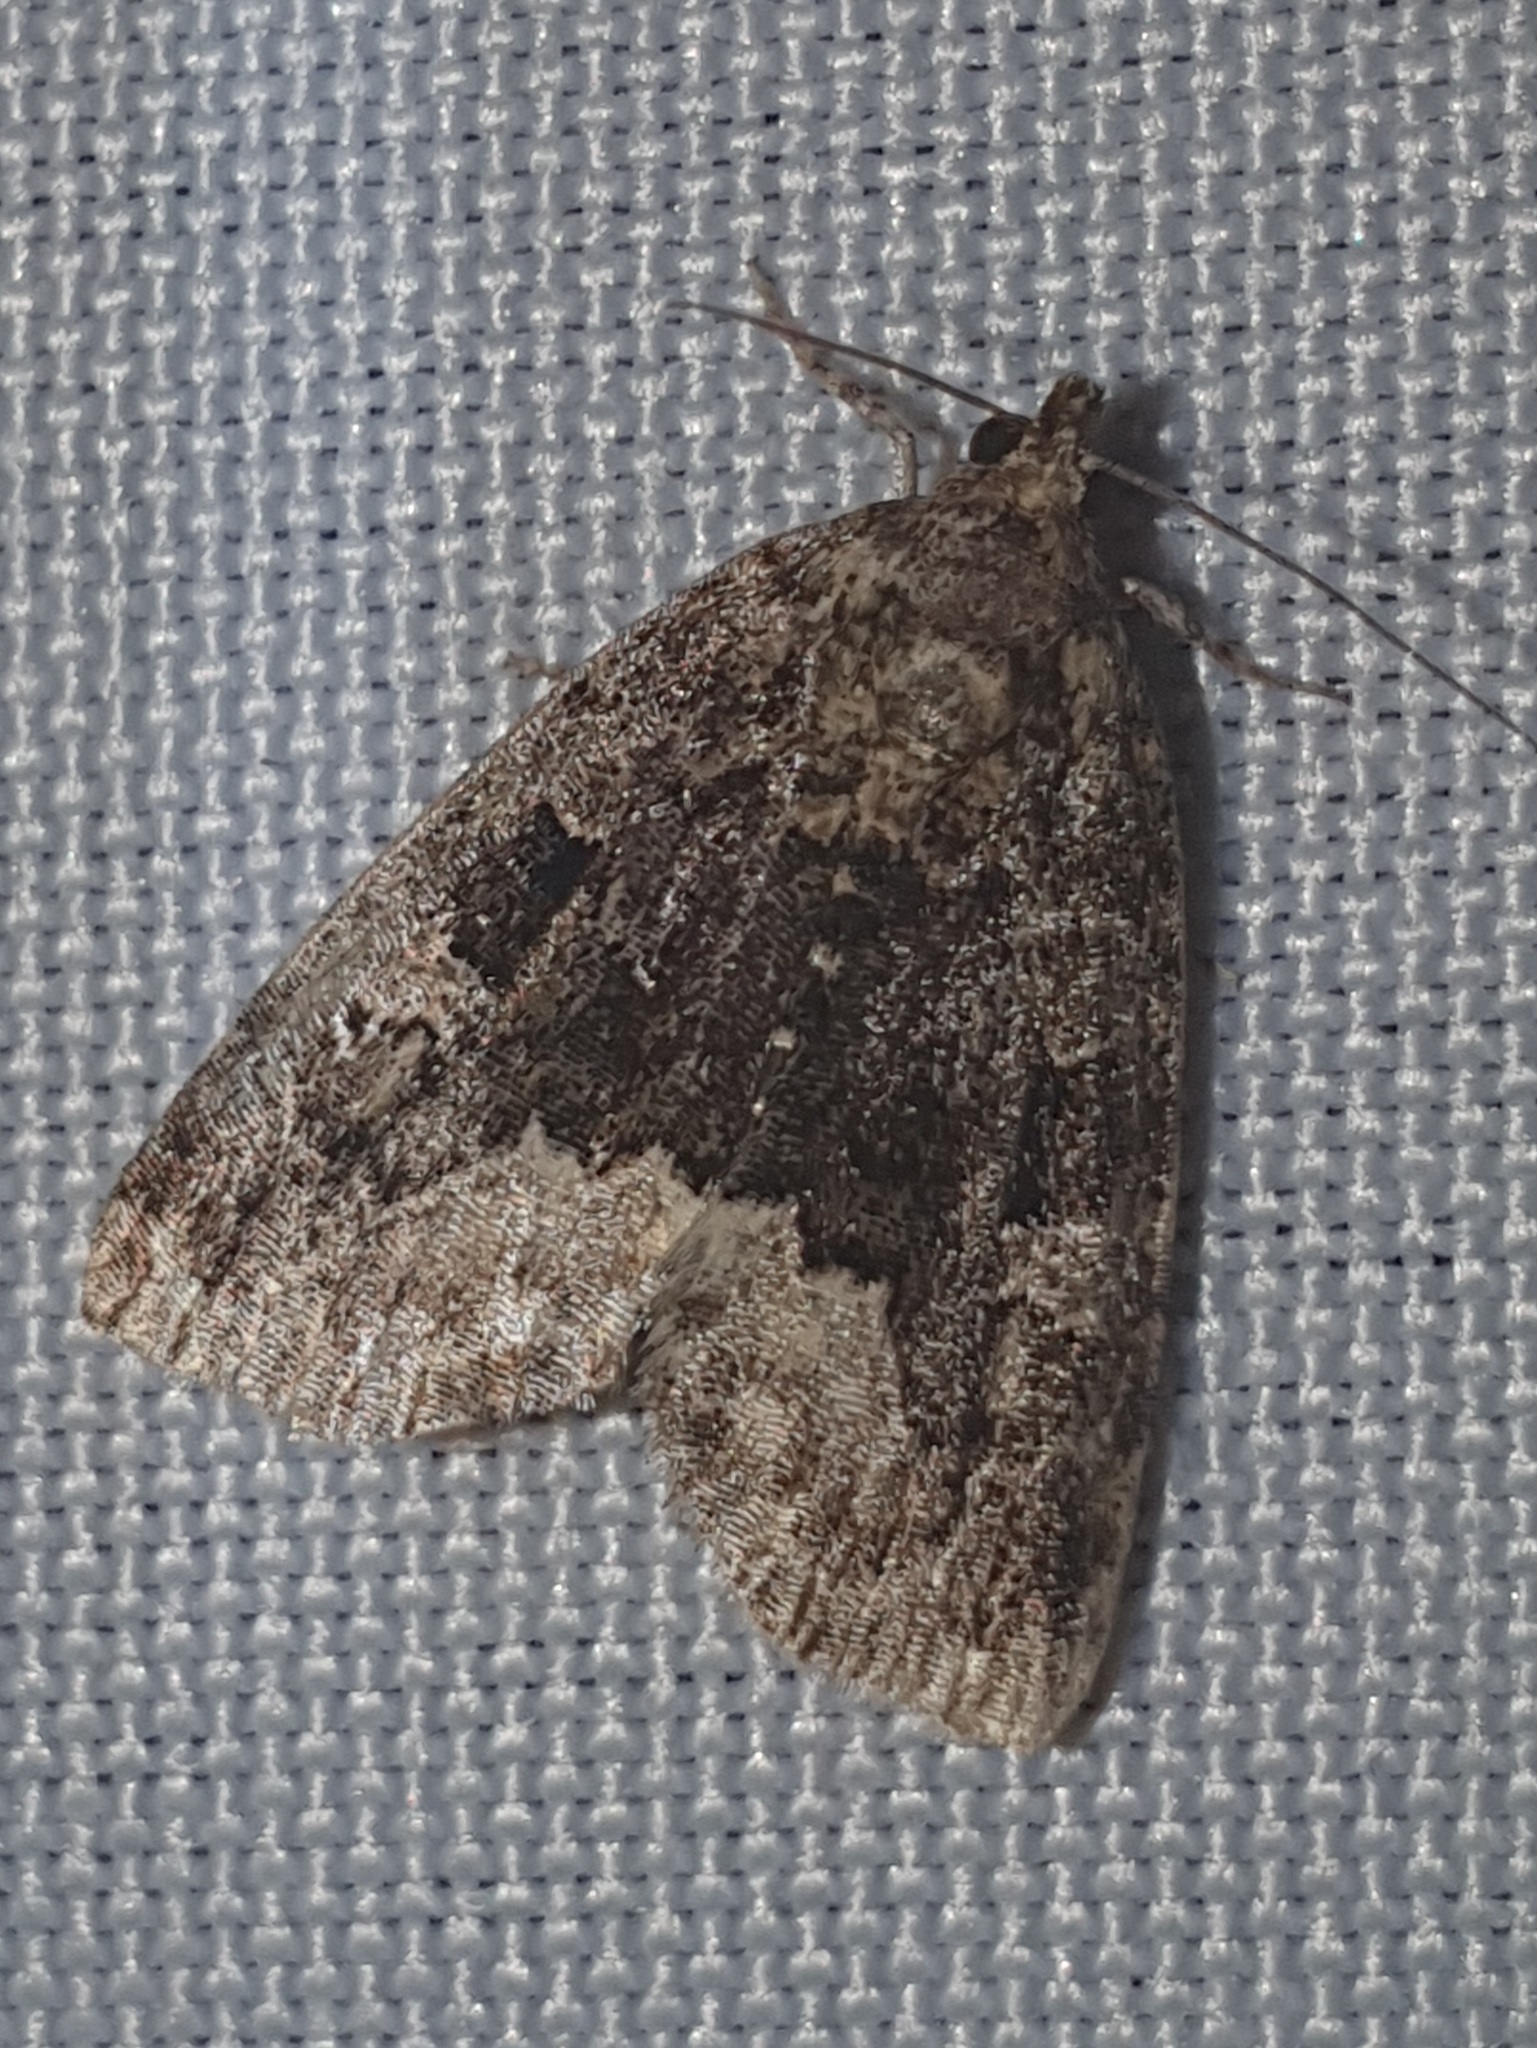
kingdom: Animalia
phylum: Arthropoda
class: Insecta
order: Lepidoptera
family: Noctuidae
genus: Deltote
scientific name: Deltote pygarga
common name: Marbled white spot
